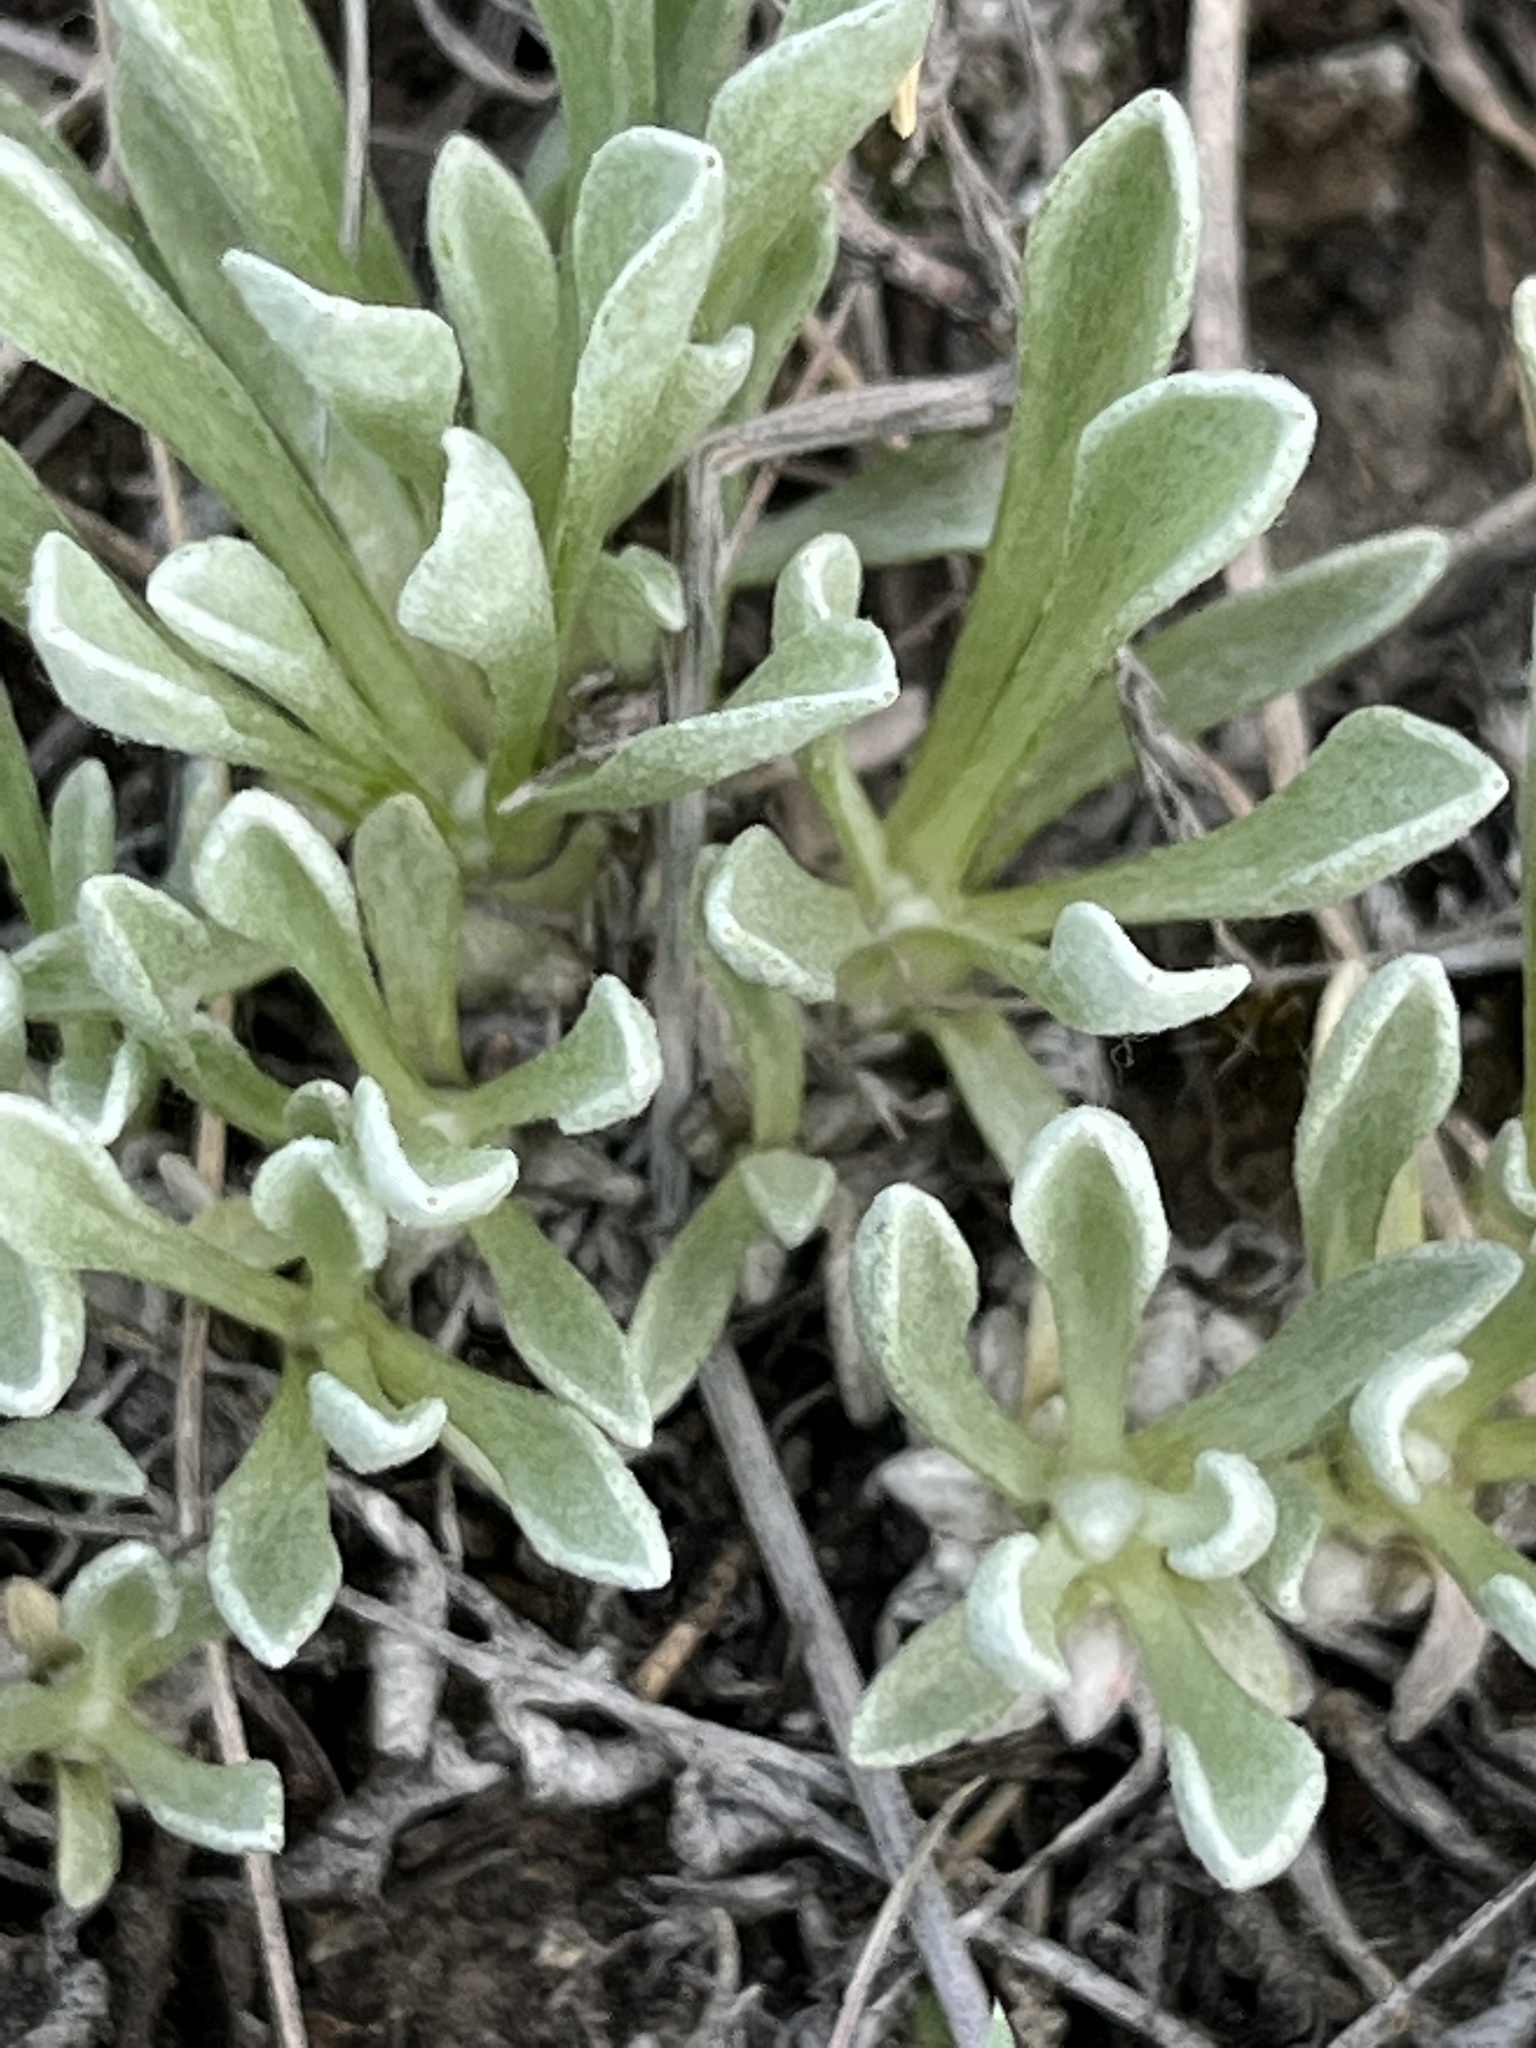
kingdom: Plantae
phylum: Tracheophyta
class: Magnoliopsida
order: Asterales
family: Asteraceae
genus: Antennaria
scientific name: Antennaria dimorpha
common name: Cushion pussytoes
